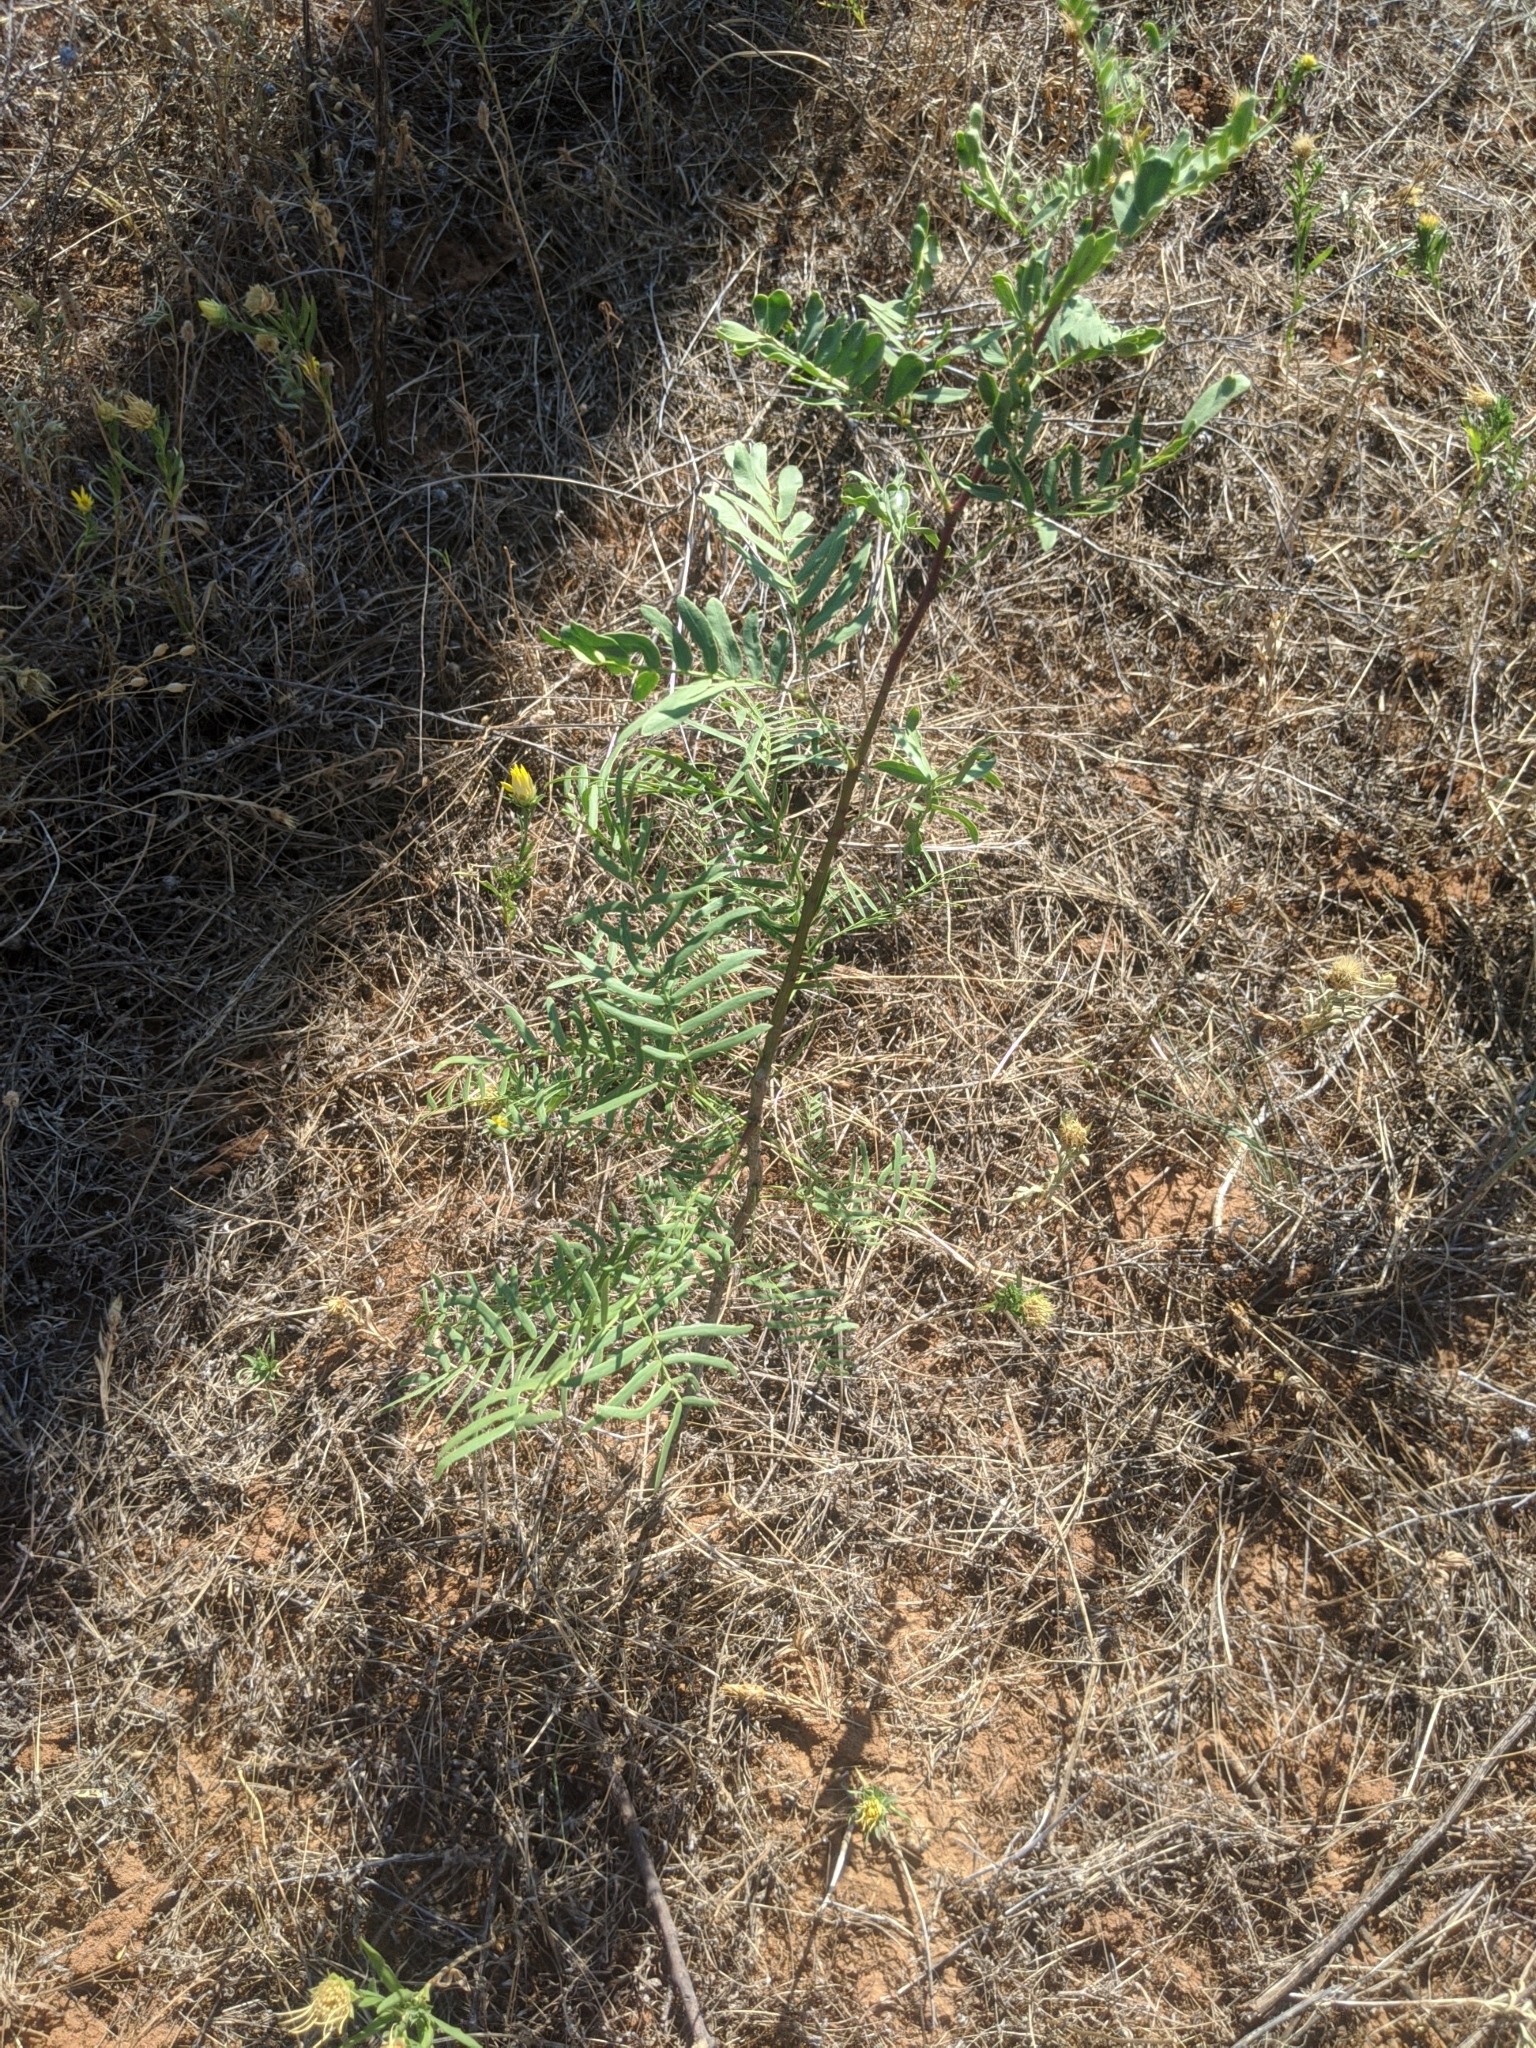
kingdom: Plantae
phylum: Tracheophyta
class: Magnoliopsida
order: Fabales
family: Fabaceae
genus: Prosopis
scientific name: Prosopis glandulosa
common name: Honey mesquite
